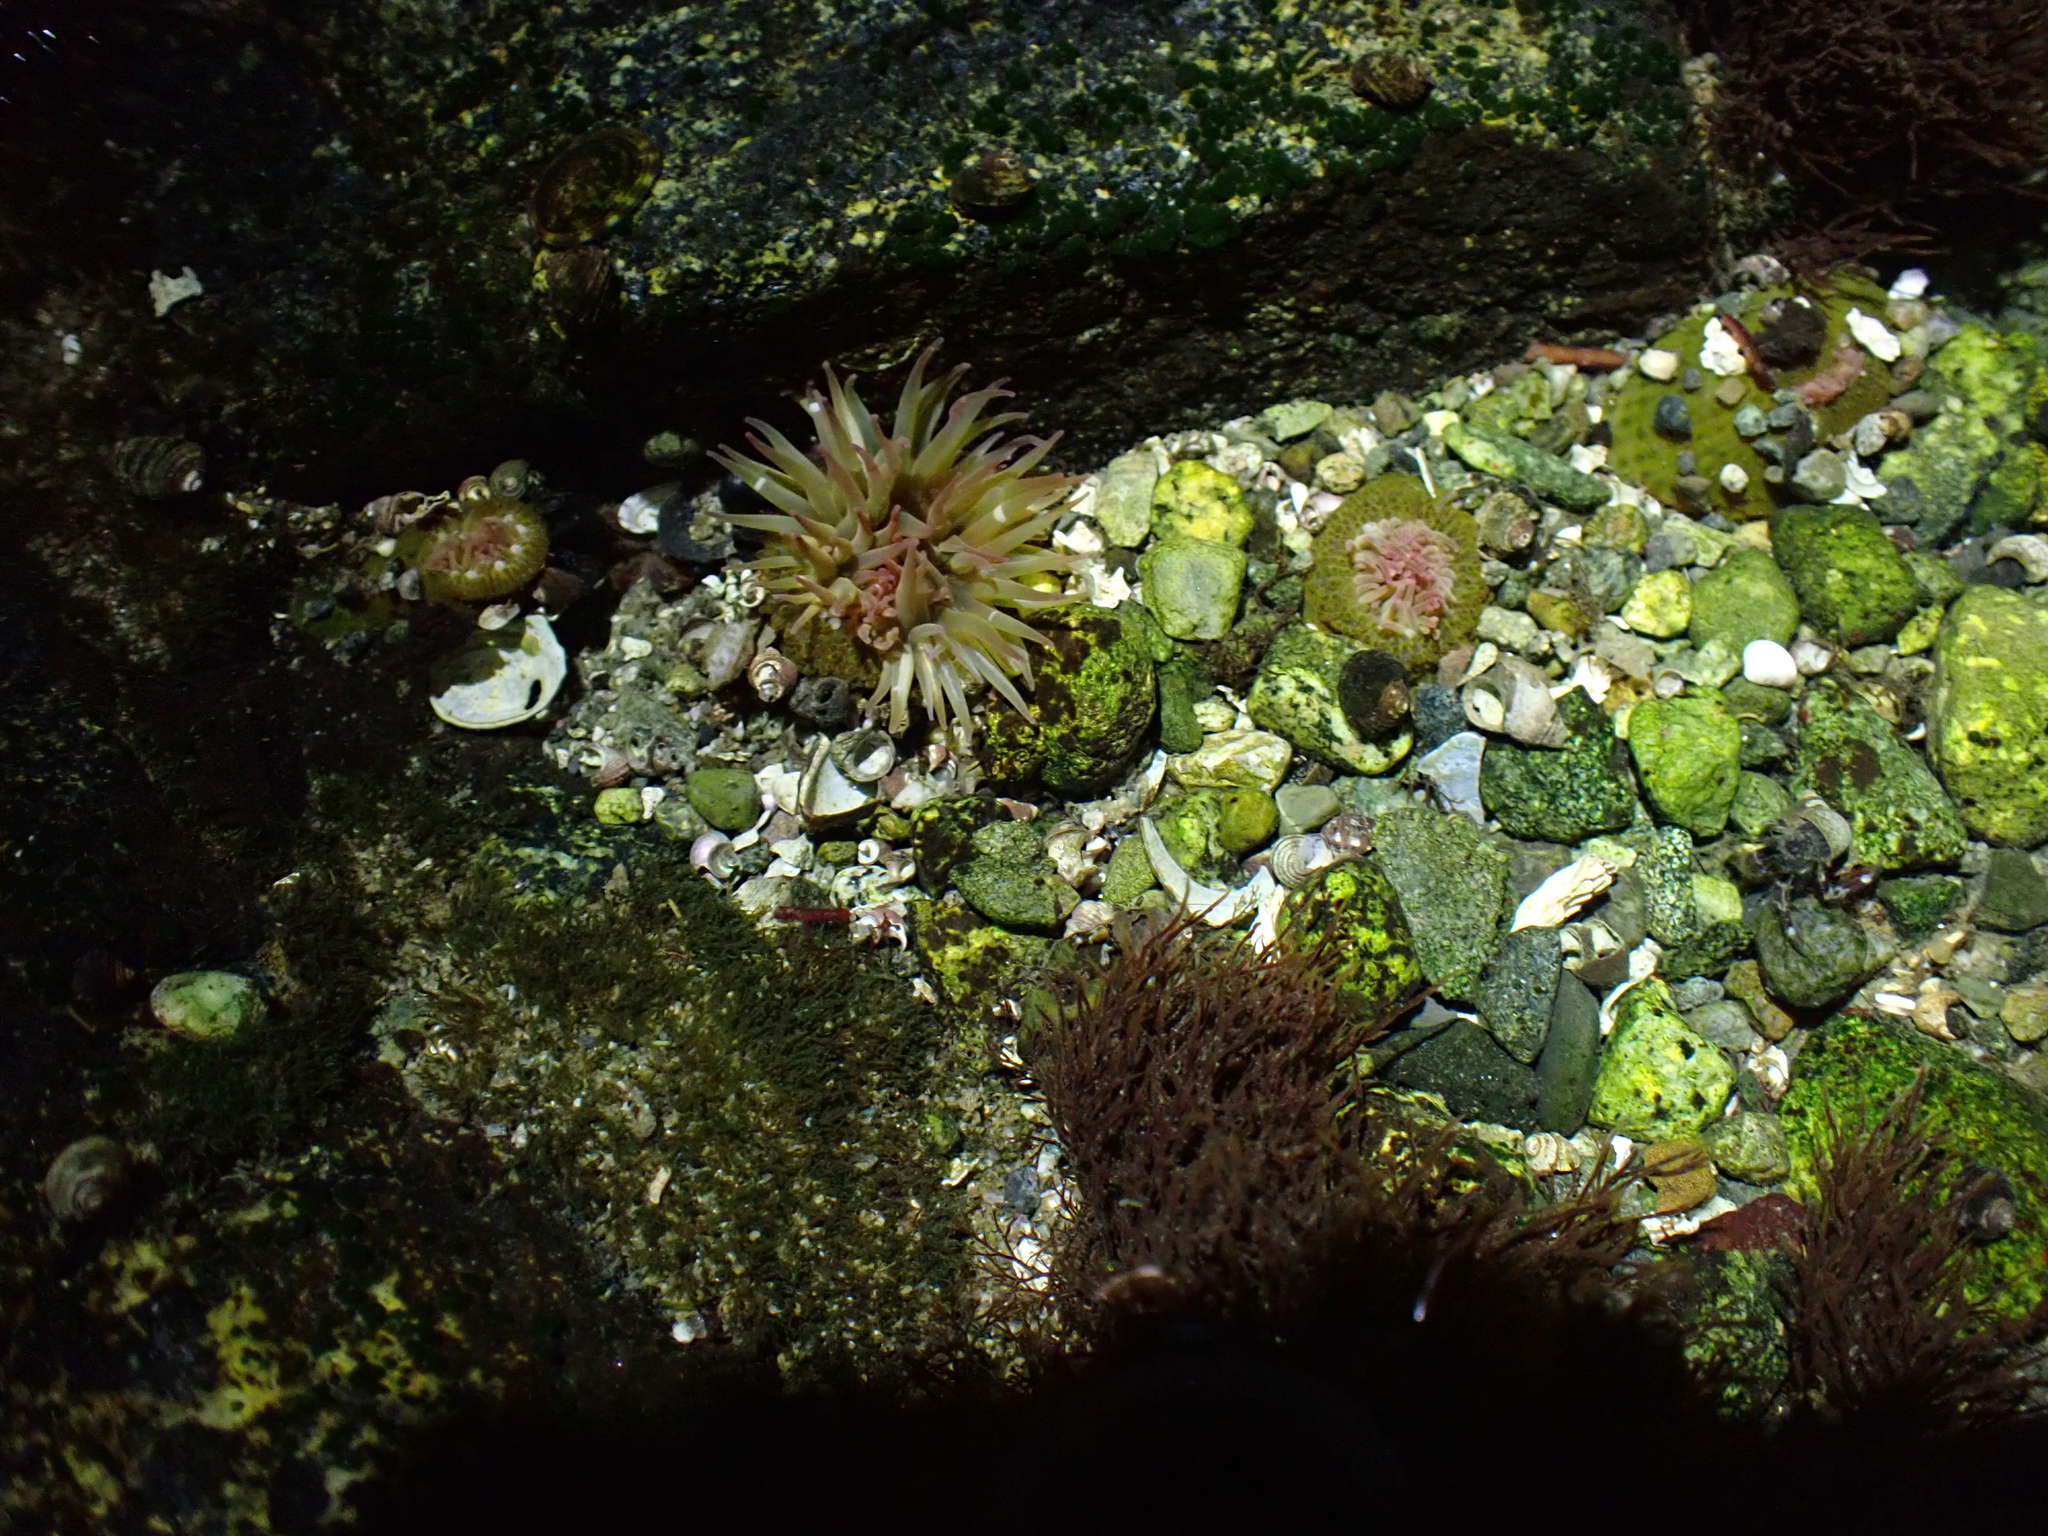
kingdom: Animalia
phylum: Cnidaria
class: Anthozoa
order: Actiniaria
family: Actiniidae
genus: Anthopleura
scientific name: Anthopleura elegantissima
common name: Clonal anemone
